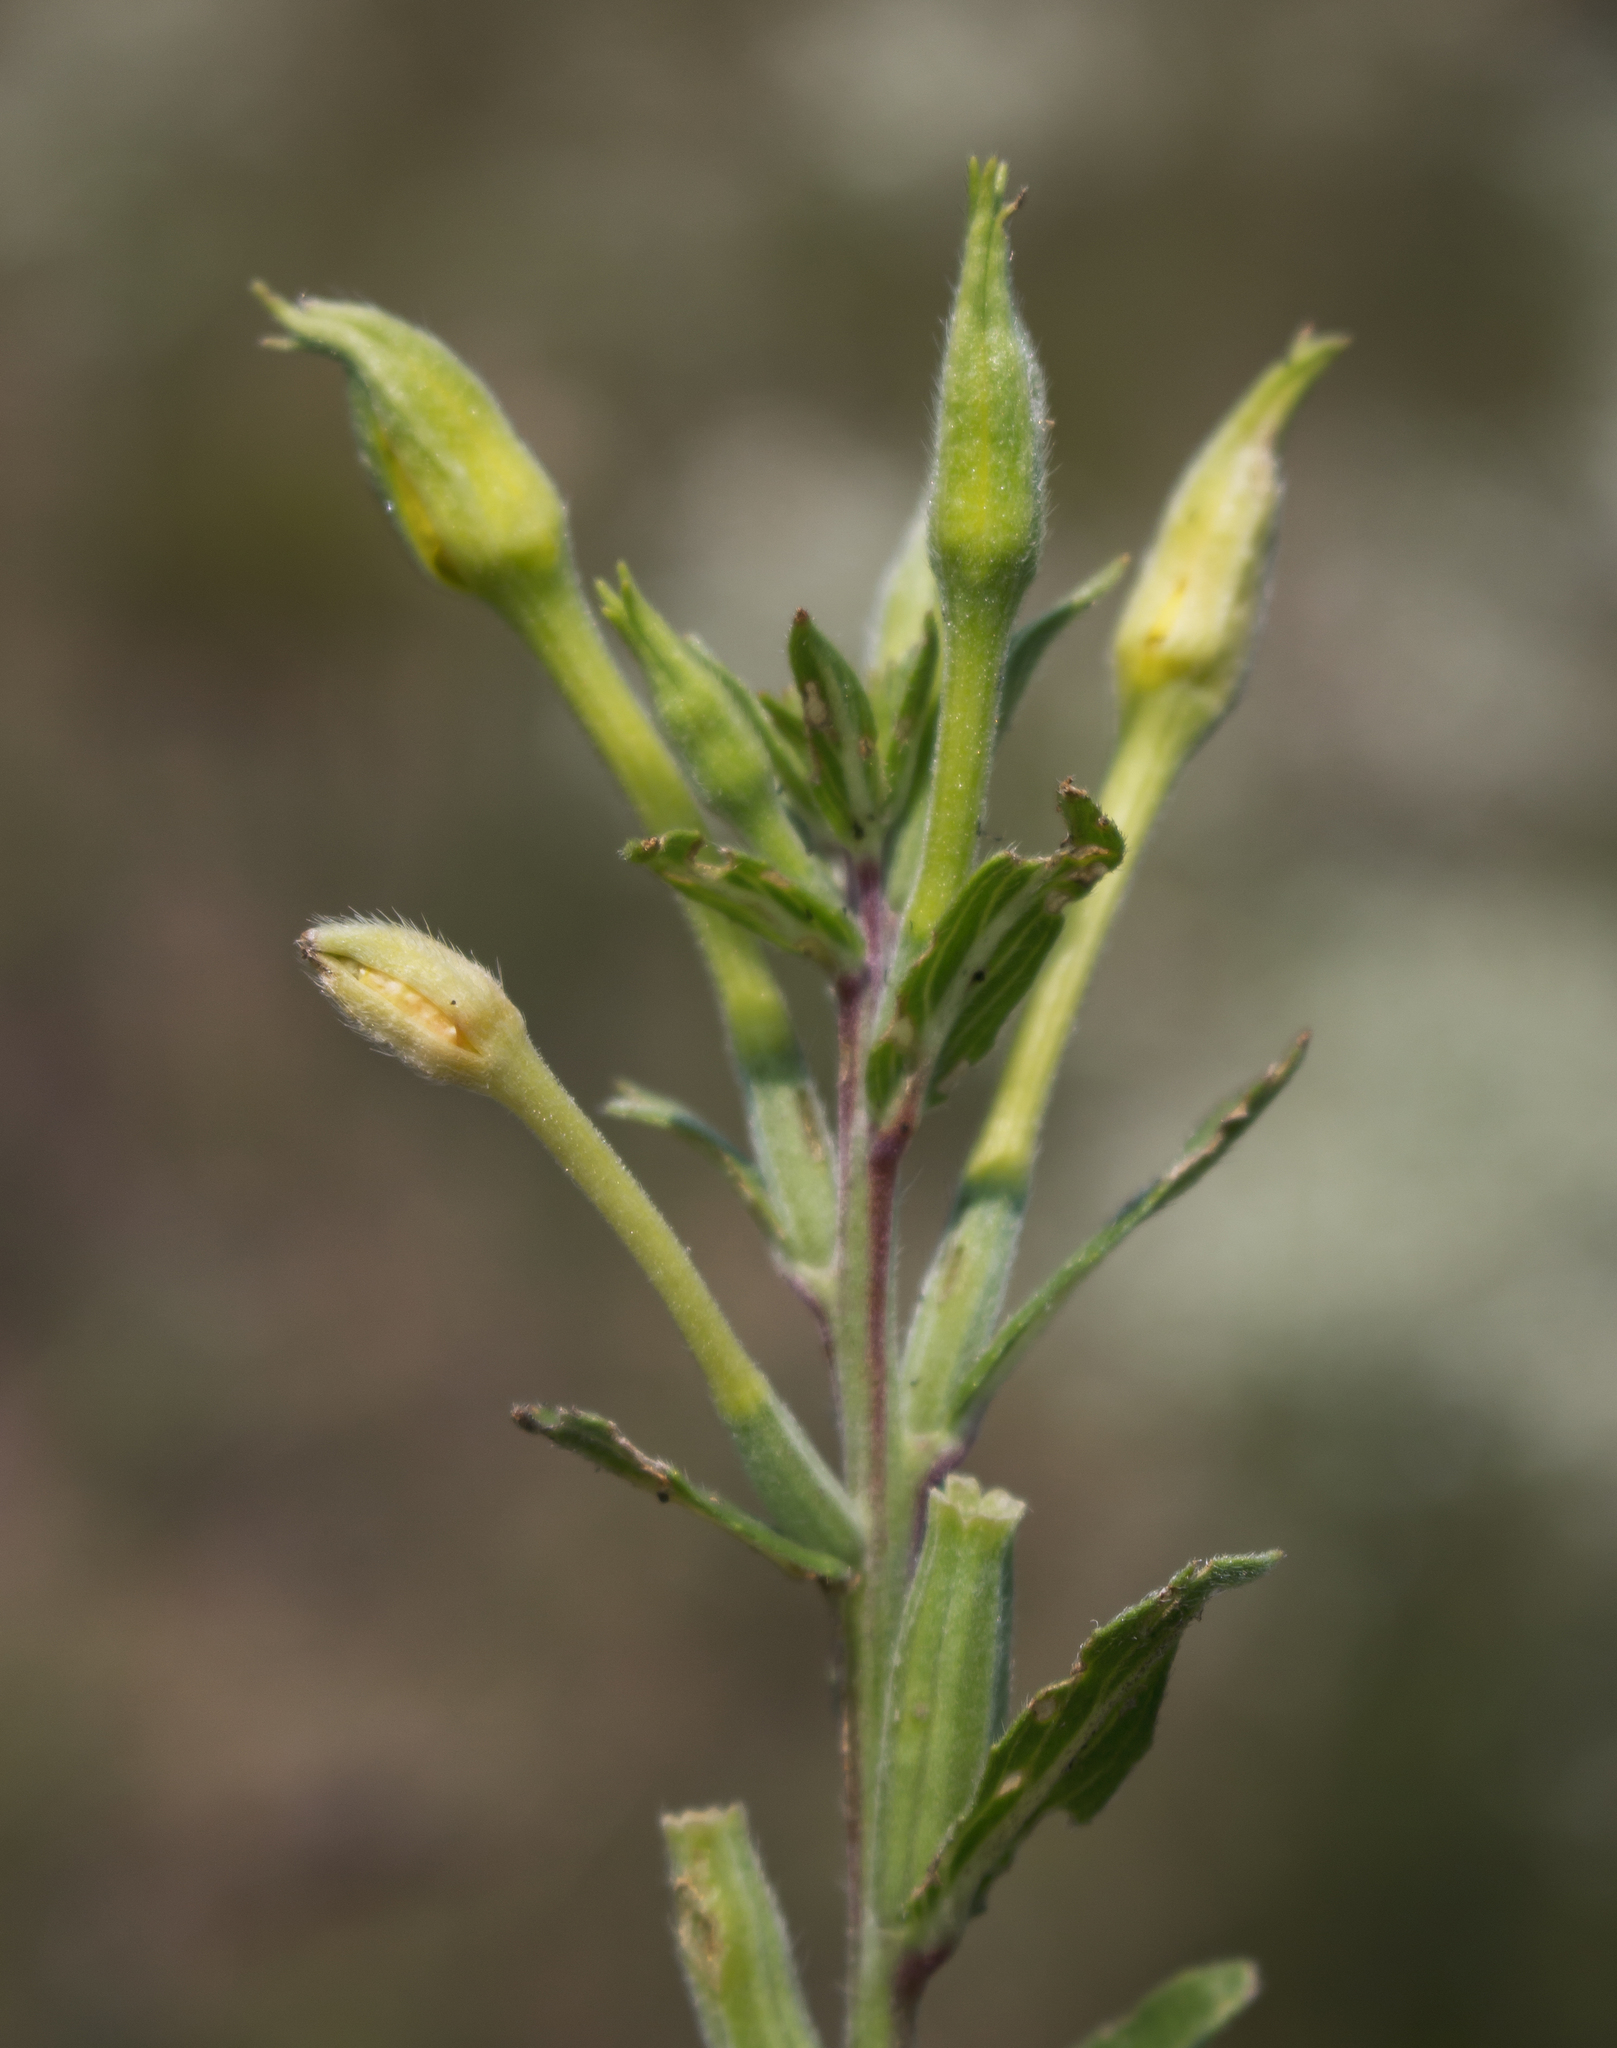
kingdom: Plantae
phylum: Tracheophyta
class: Magnoliopsida
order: Myrtales
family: Onagraceae
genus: Oenothera
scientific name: Oenothera biennis
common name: Common evening-primrose
